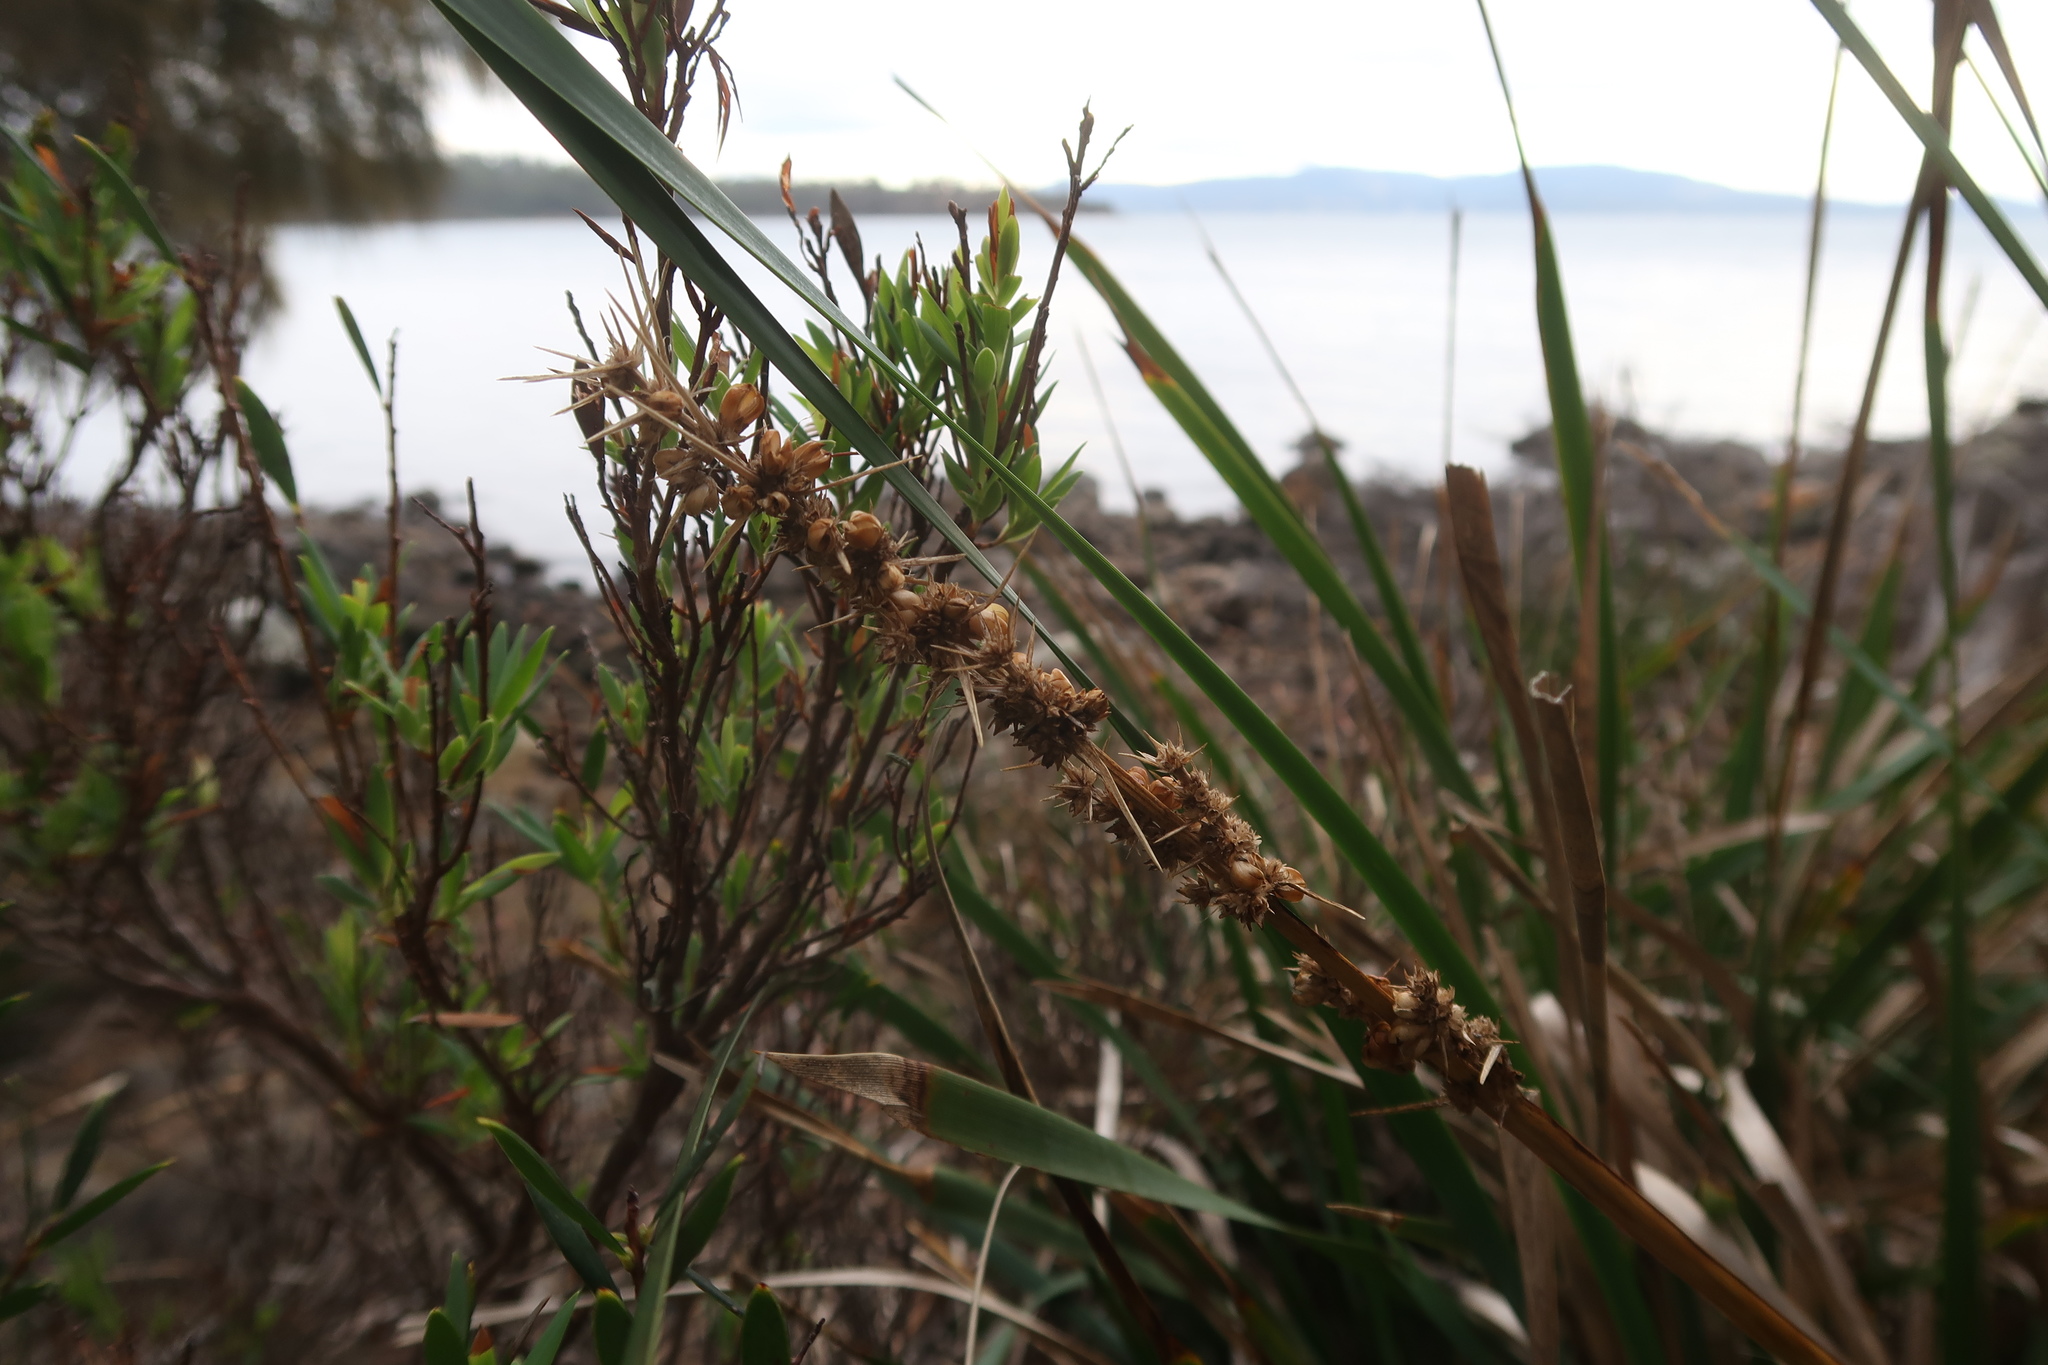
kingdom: Plantae
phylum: Tracheophyta
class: Liliopsida
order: Asparagales
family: Asparagaceae
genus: Lomandra
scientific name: Lomandra longifolia
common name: Longleaf mat-rush
